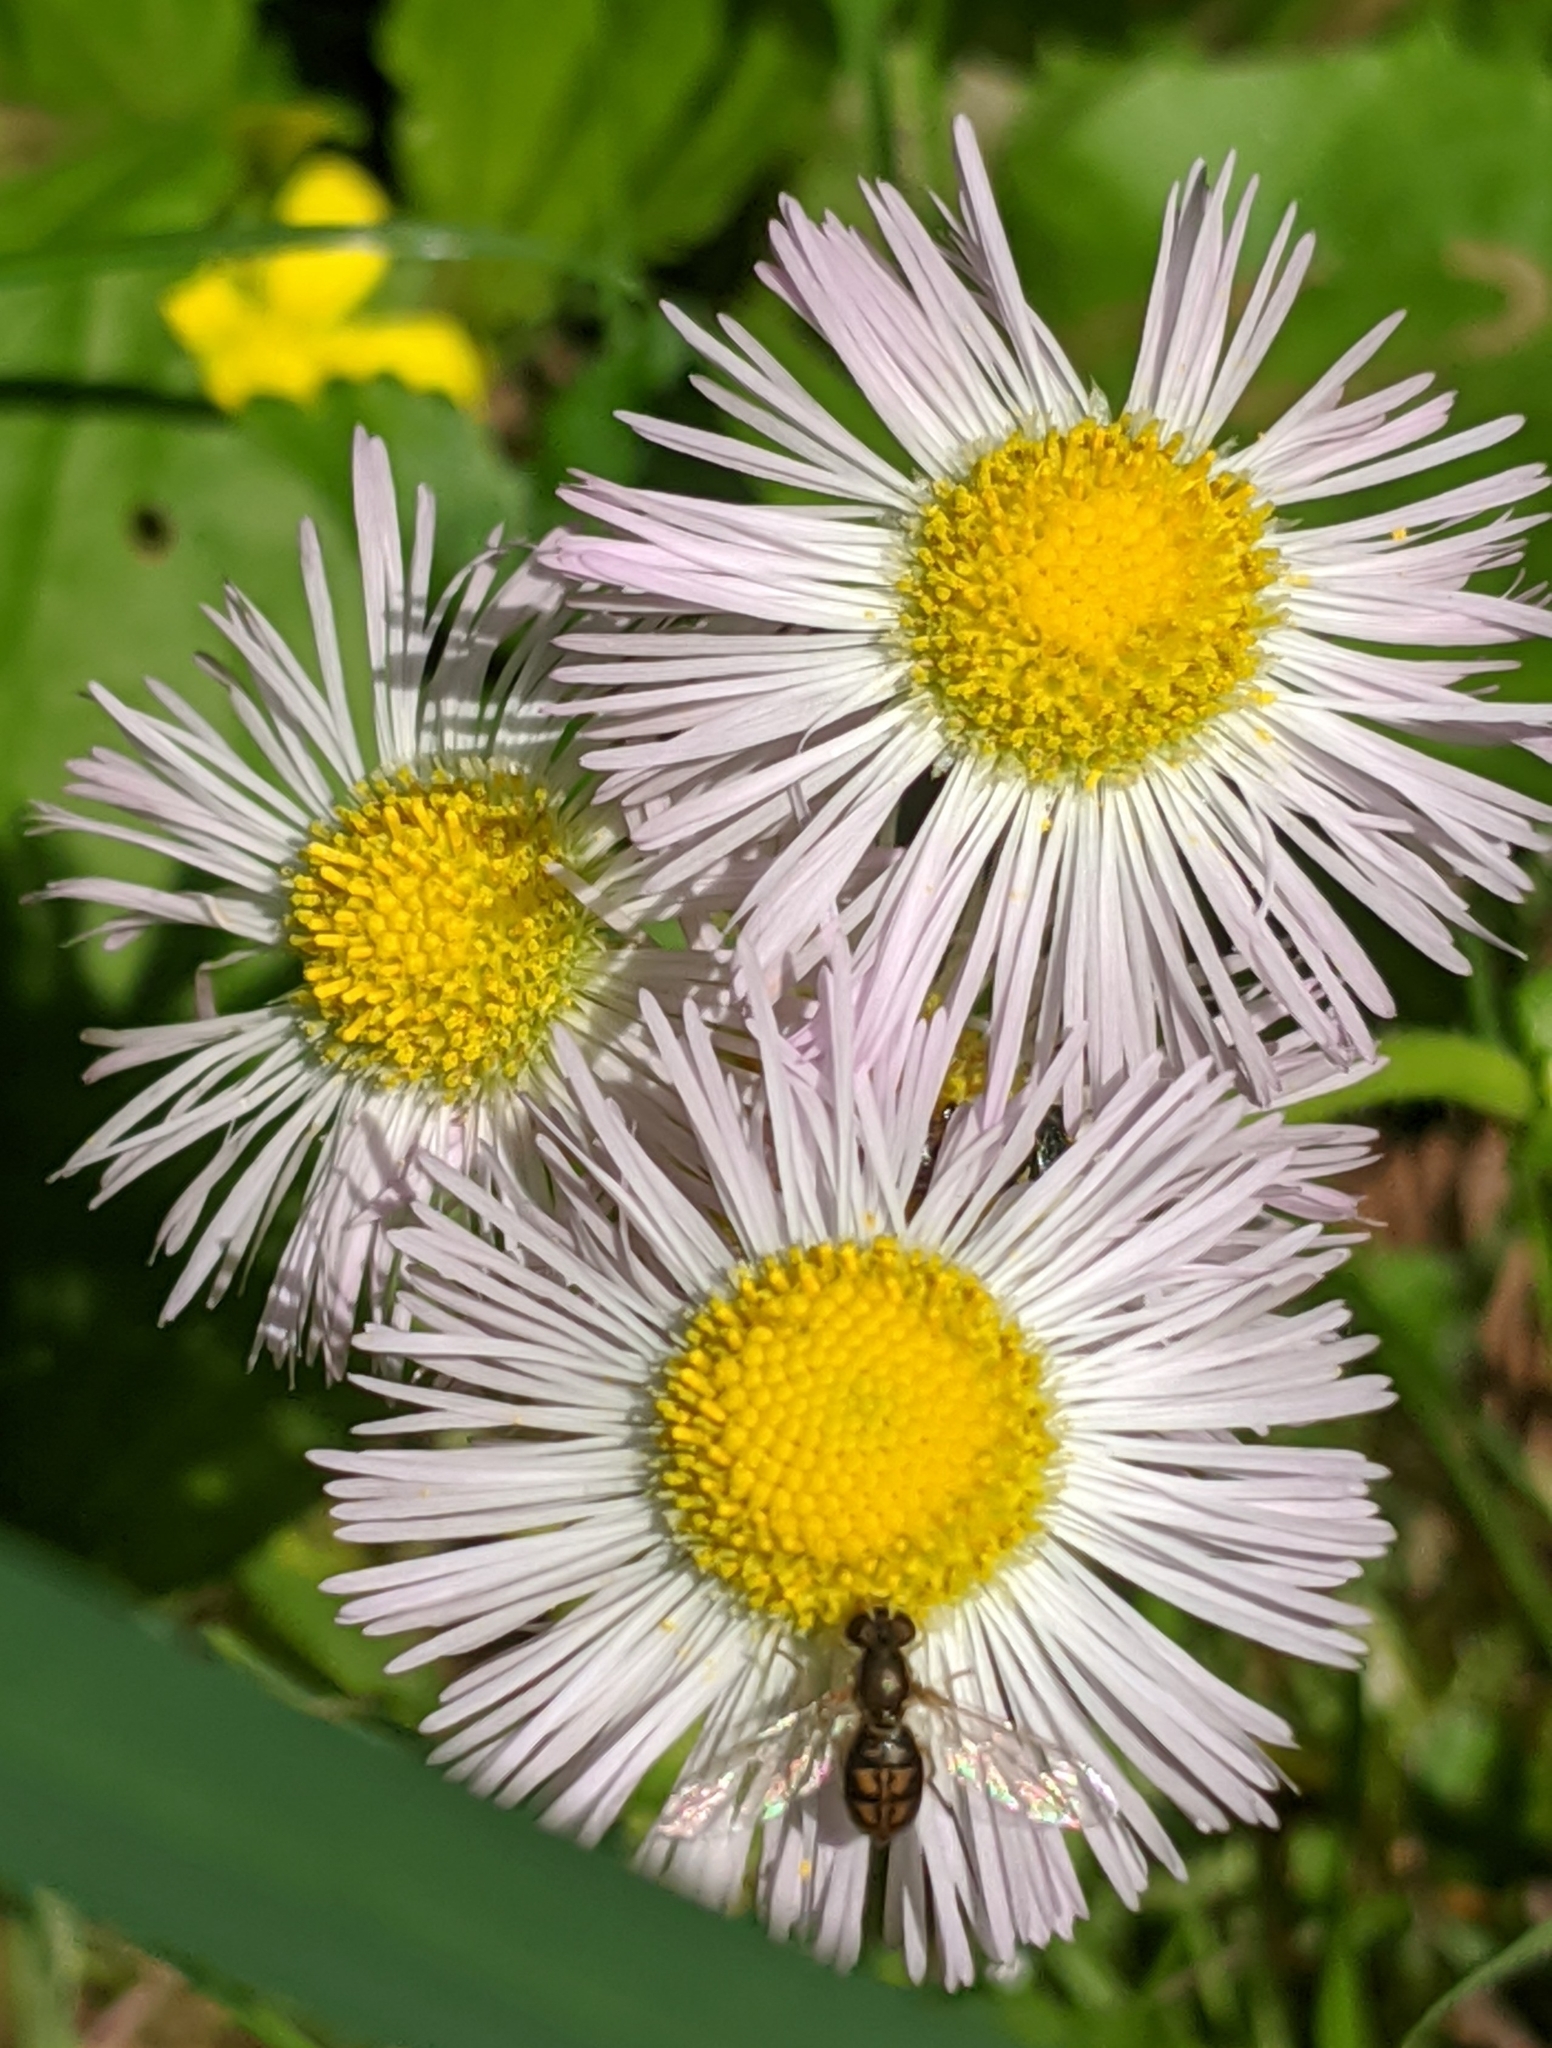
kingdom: Animalia
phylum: Arthropoda
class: Insecta
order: Diptera
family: Syrphidae
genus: Toxomerus
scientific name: Toxomerus marginatus
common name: Syrphid fly
